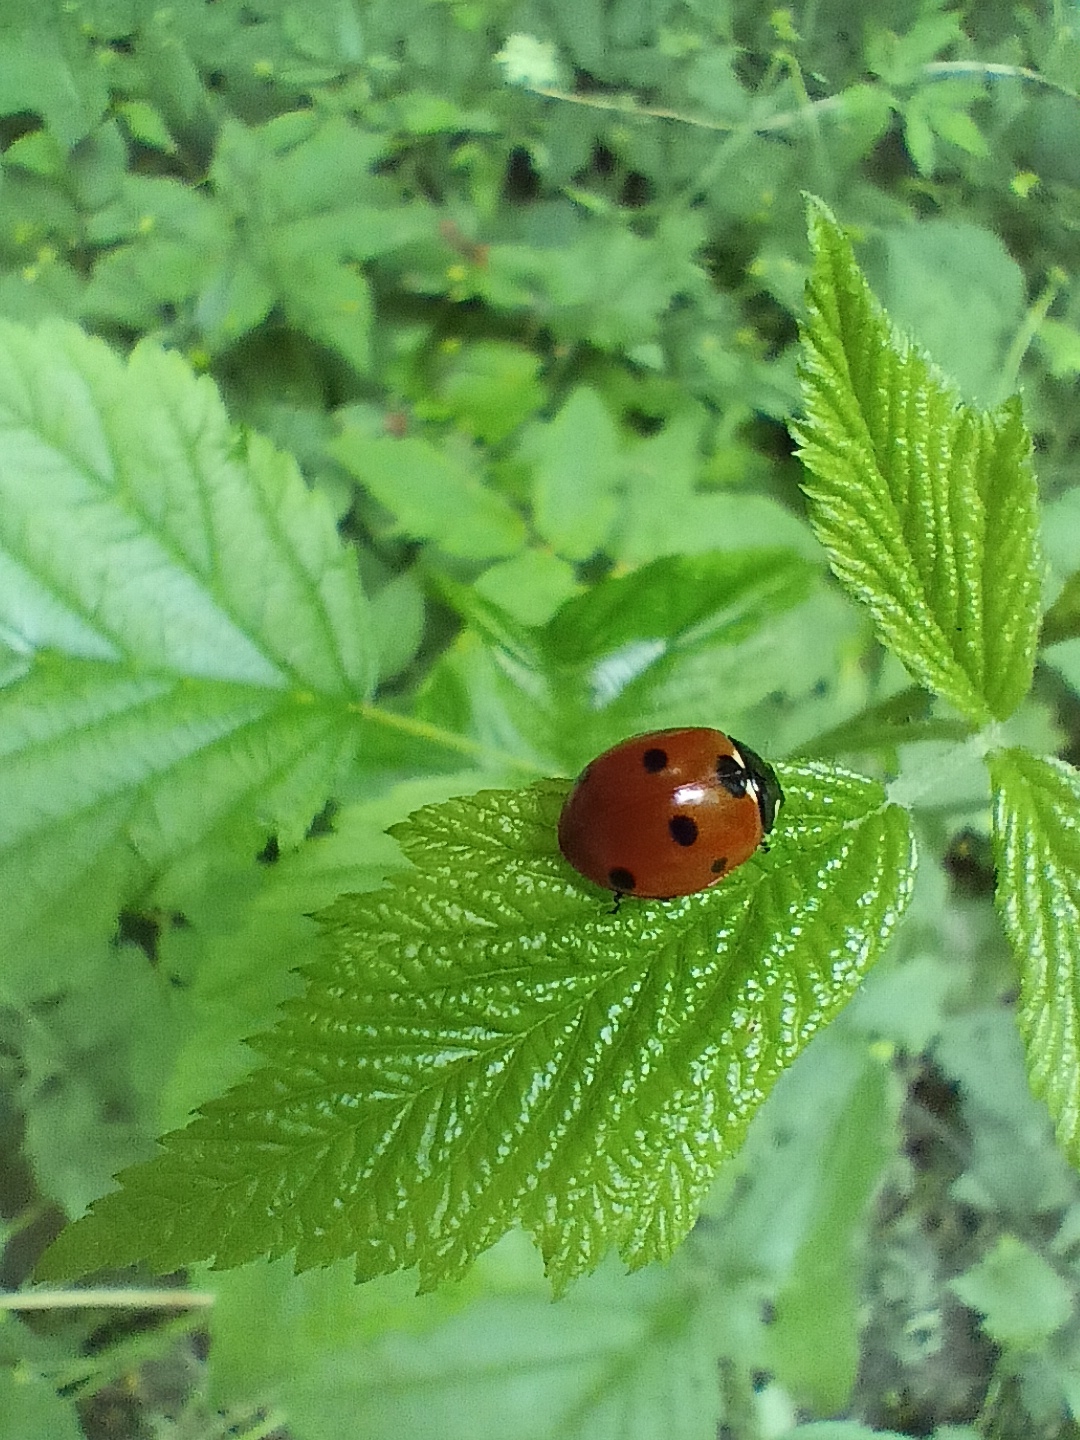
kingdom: Animalia
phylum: Arthropoda
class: Insecta
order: Coleoptera
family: Coccinellidae
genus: Coccinella
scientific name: Coccinella septempunctata
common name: Sevenspotted lady beetle
